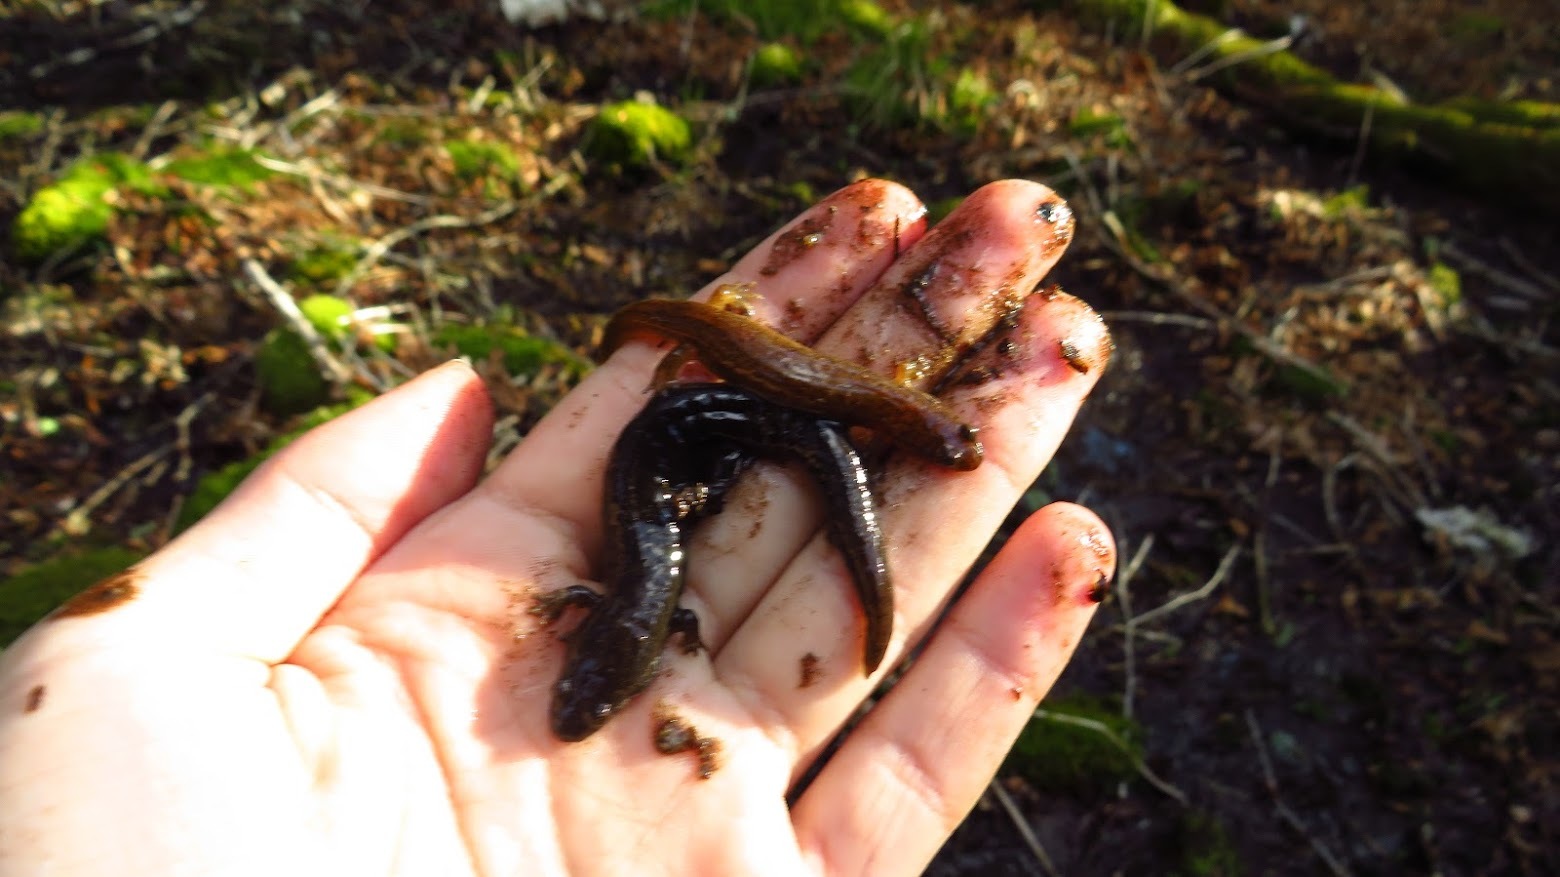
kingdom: Animalia
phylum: Chordata
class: Amphibia
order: Caudata
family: Plethodontidae
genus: Desmognathus
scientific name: Desmognathus santeetlah
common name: Santeetlah dusky salamander
